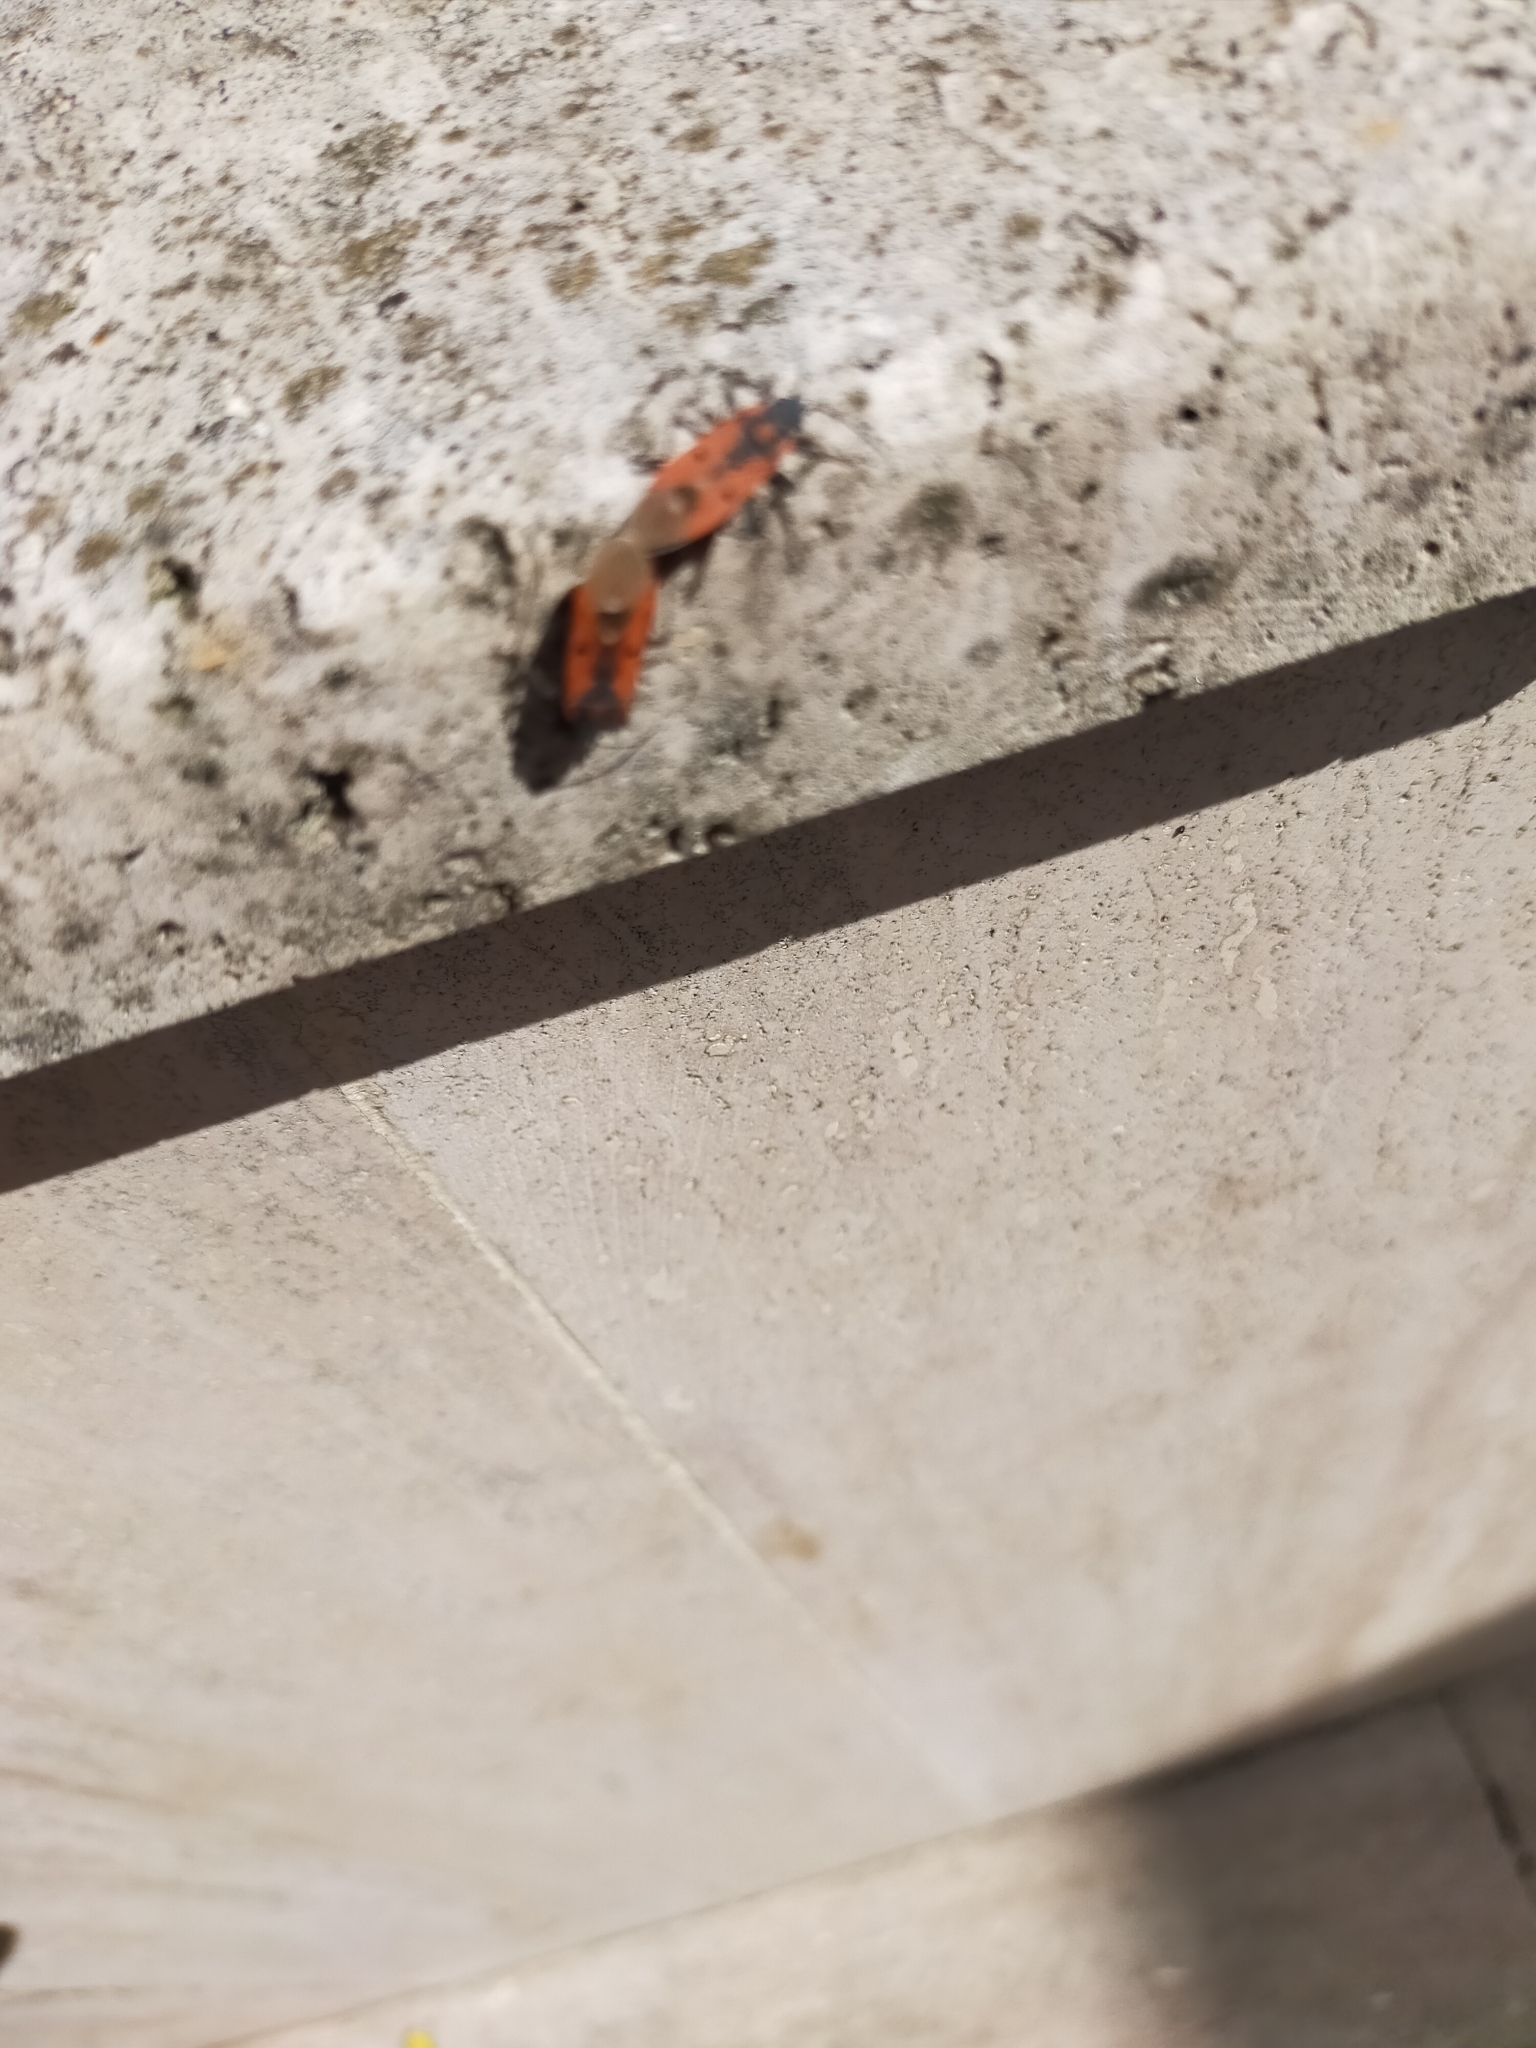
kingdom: Animalia
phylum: Arthropoda
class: Insecta
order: Hemiptera
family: Lygaeidae
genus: Lygaeus
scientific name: Lygaeus creticus
